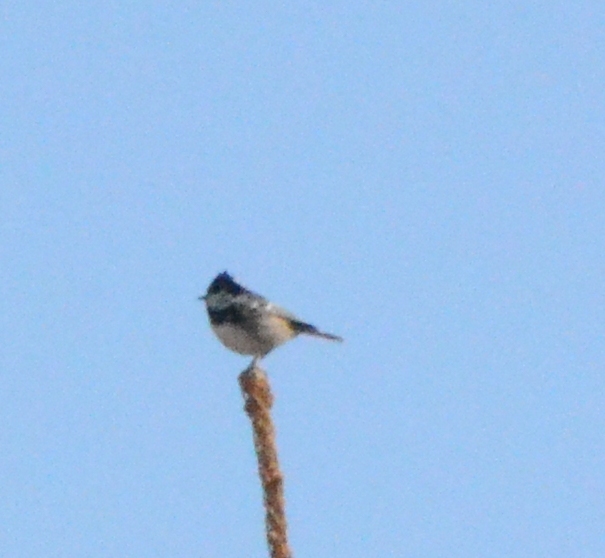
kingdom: Animalia
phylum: Chordata
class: Aves
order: Passeriformes
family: Paridae
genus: Periparus
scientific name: Periparus ater
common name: Coal tit
